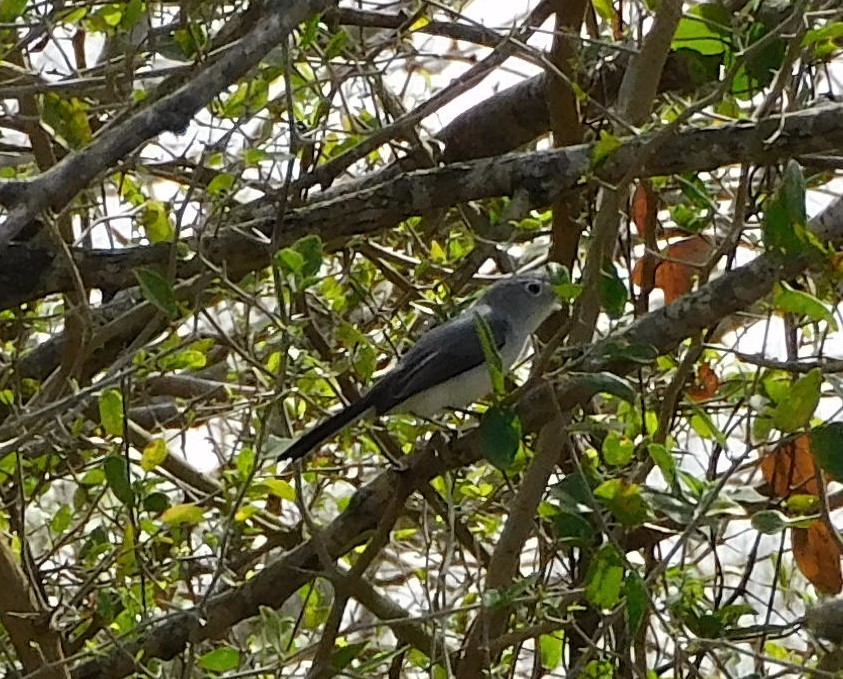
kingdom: Animalia
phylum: Chordata
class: Aves
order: Passeriformes
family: Polioptilidae
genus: Polioptila
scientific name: Polioptila caerulea
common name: Blue-gray gnatcatcher
